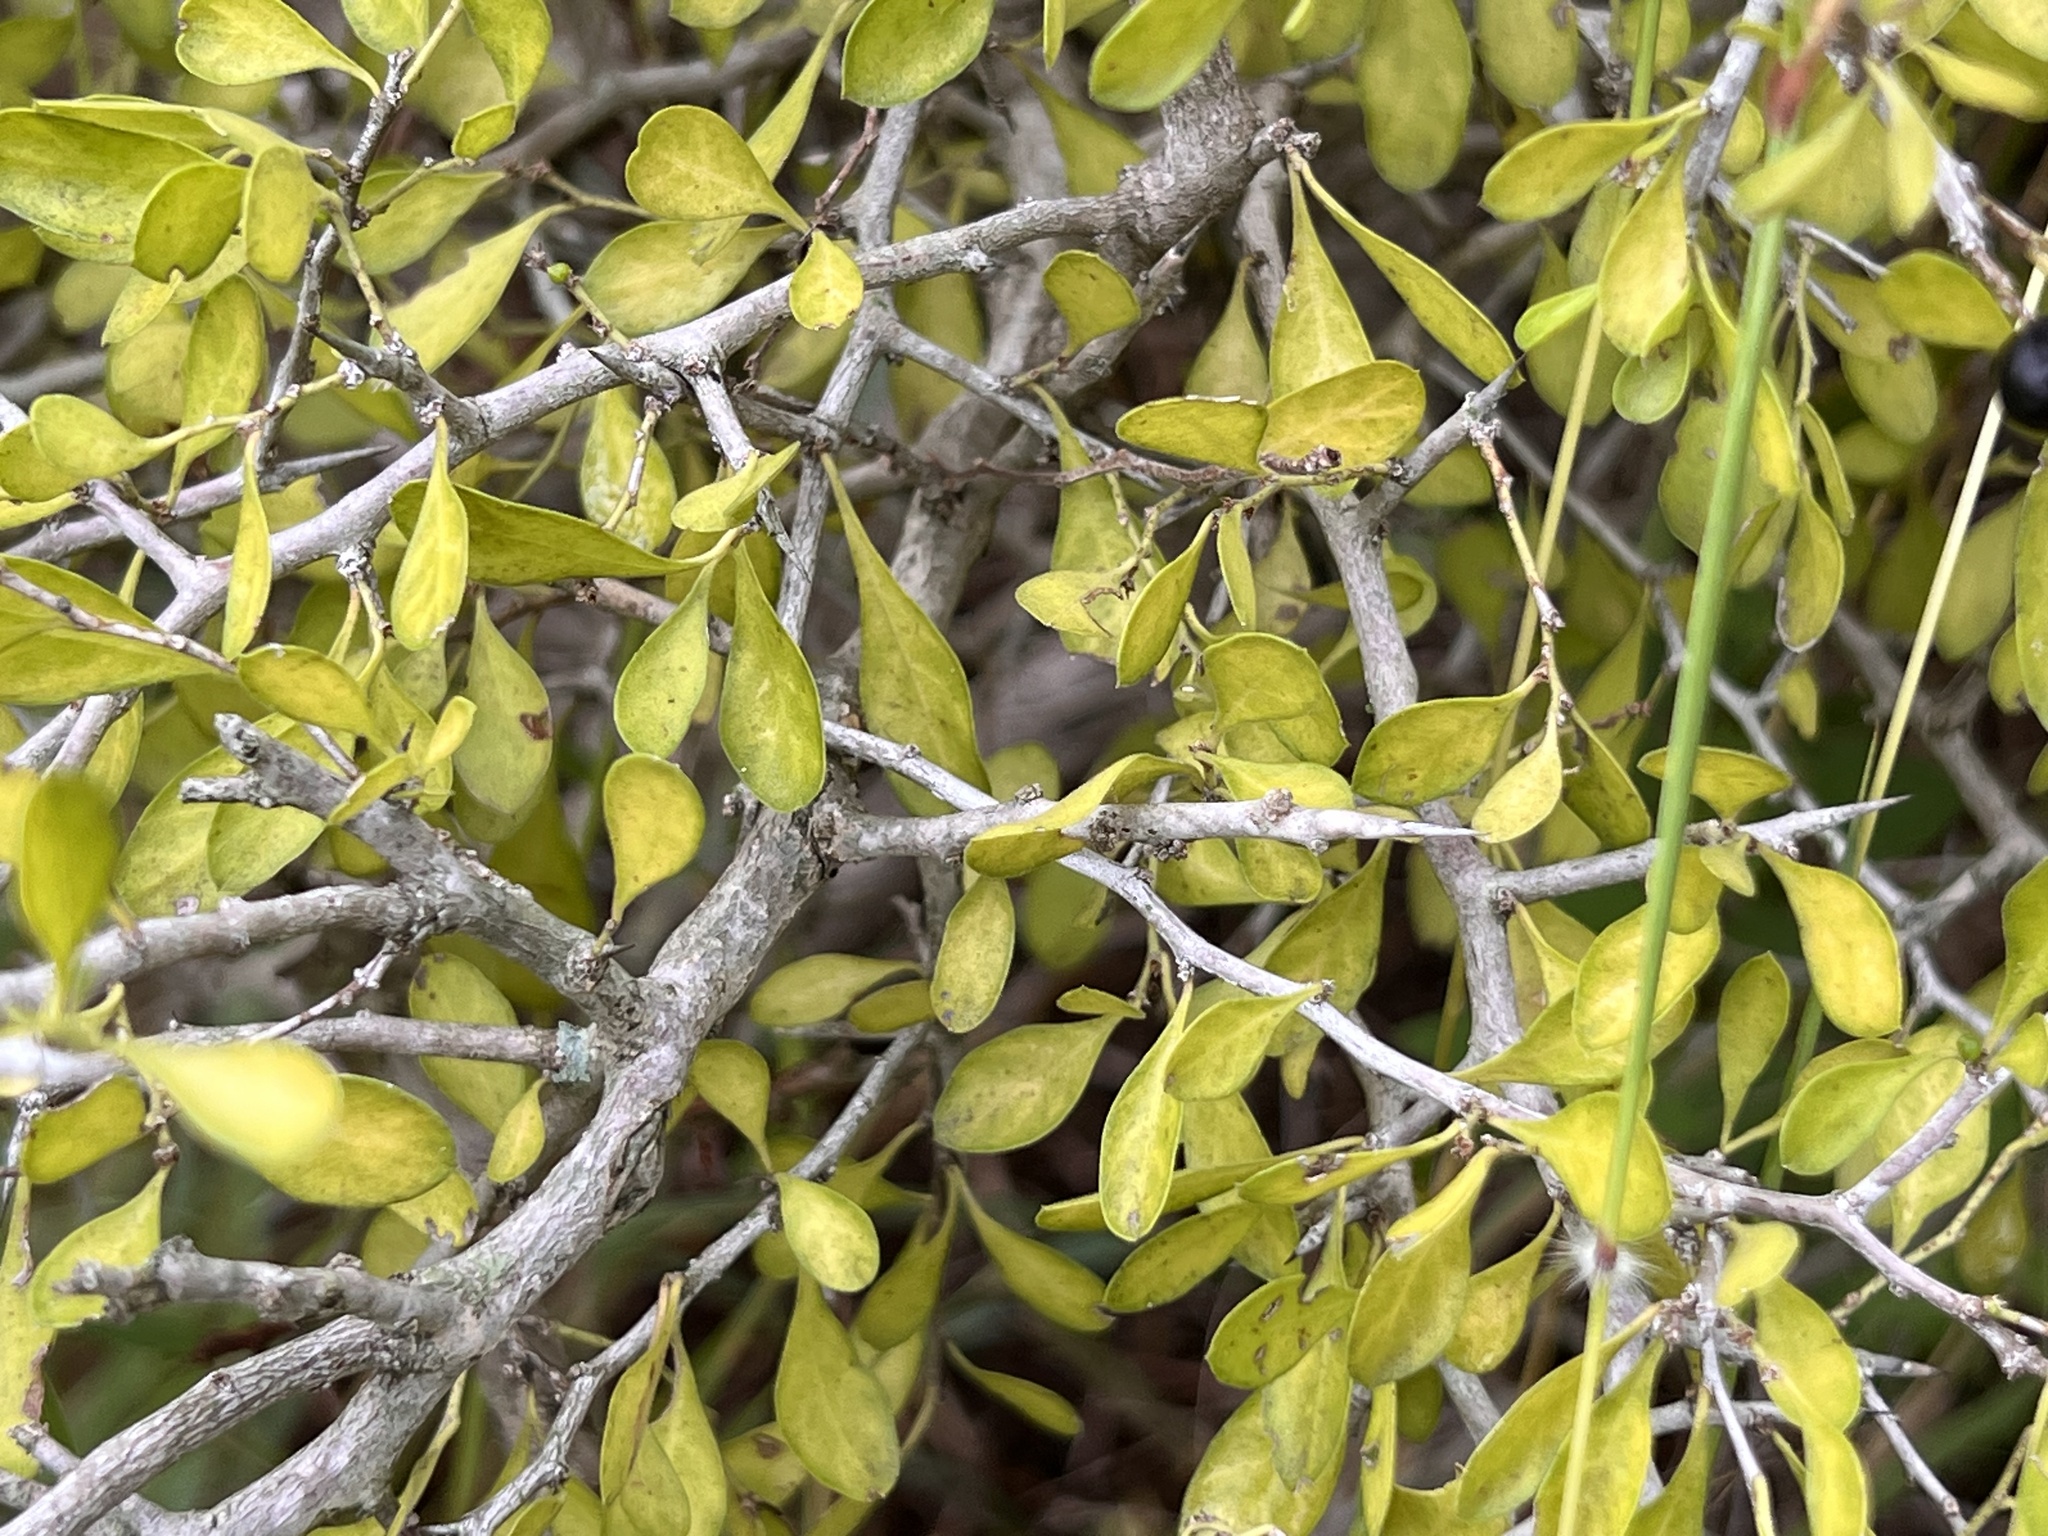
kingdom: Plantae
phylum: Tracheophyta
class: Magnoliopsida
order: Rosales
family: Rhamnaceae
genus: Condalia
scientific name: Condalia hookeri
